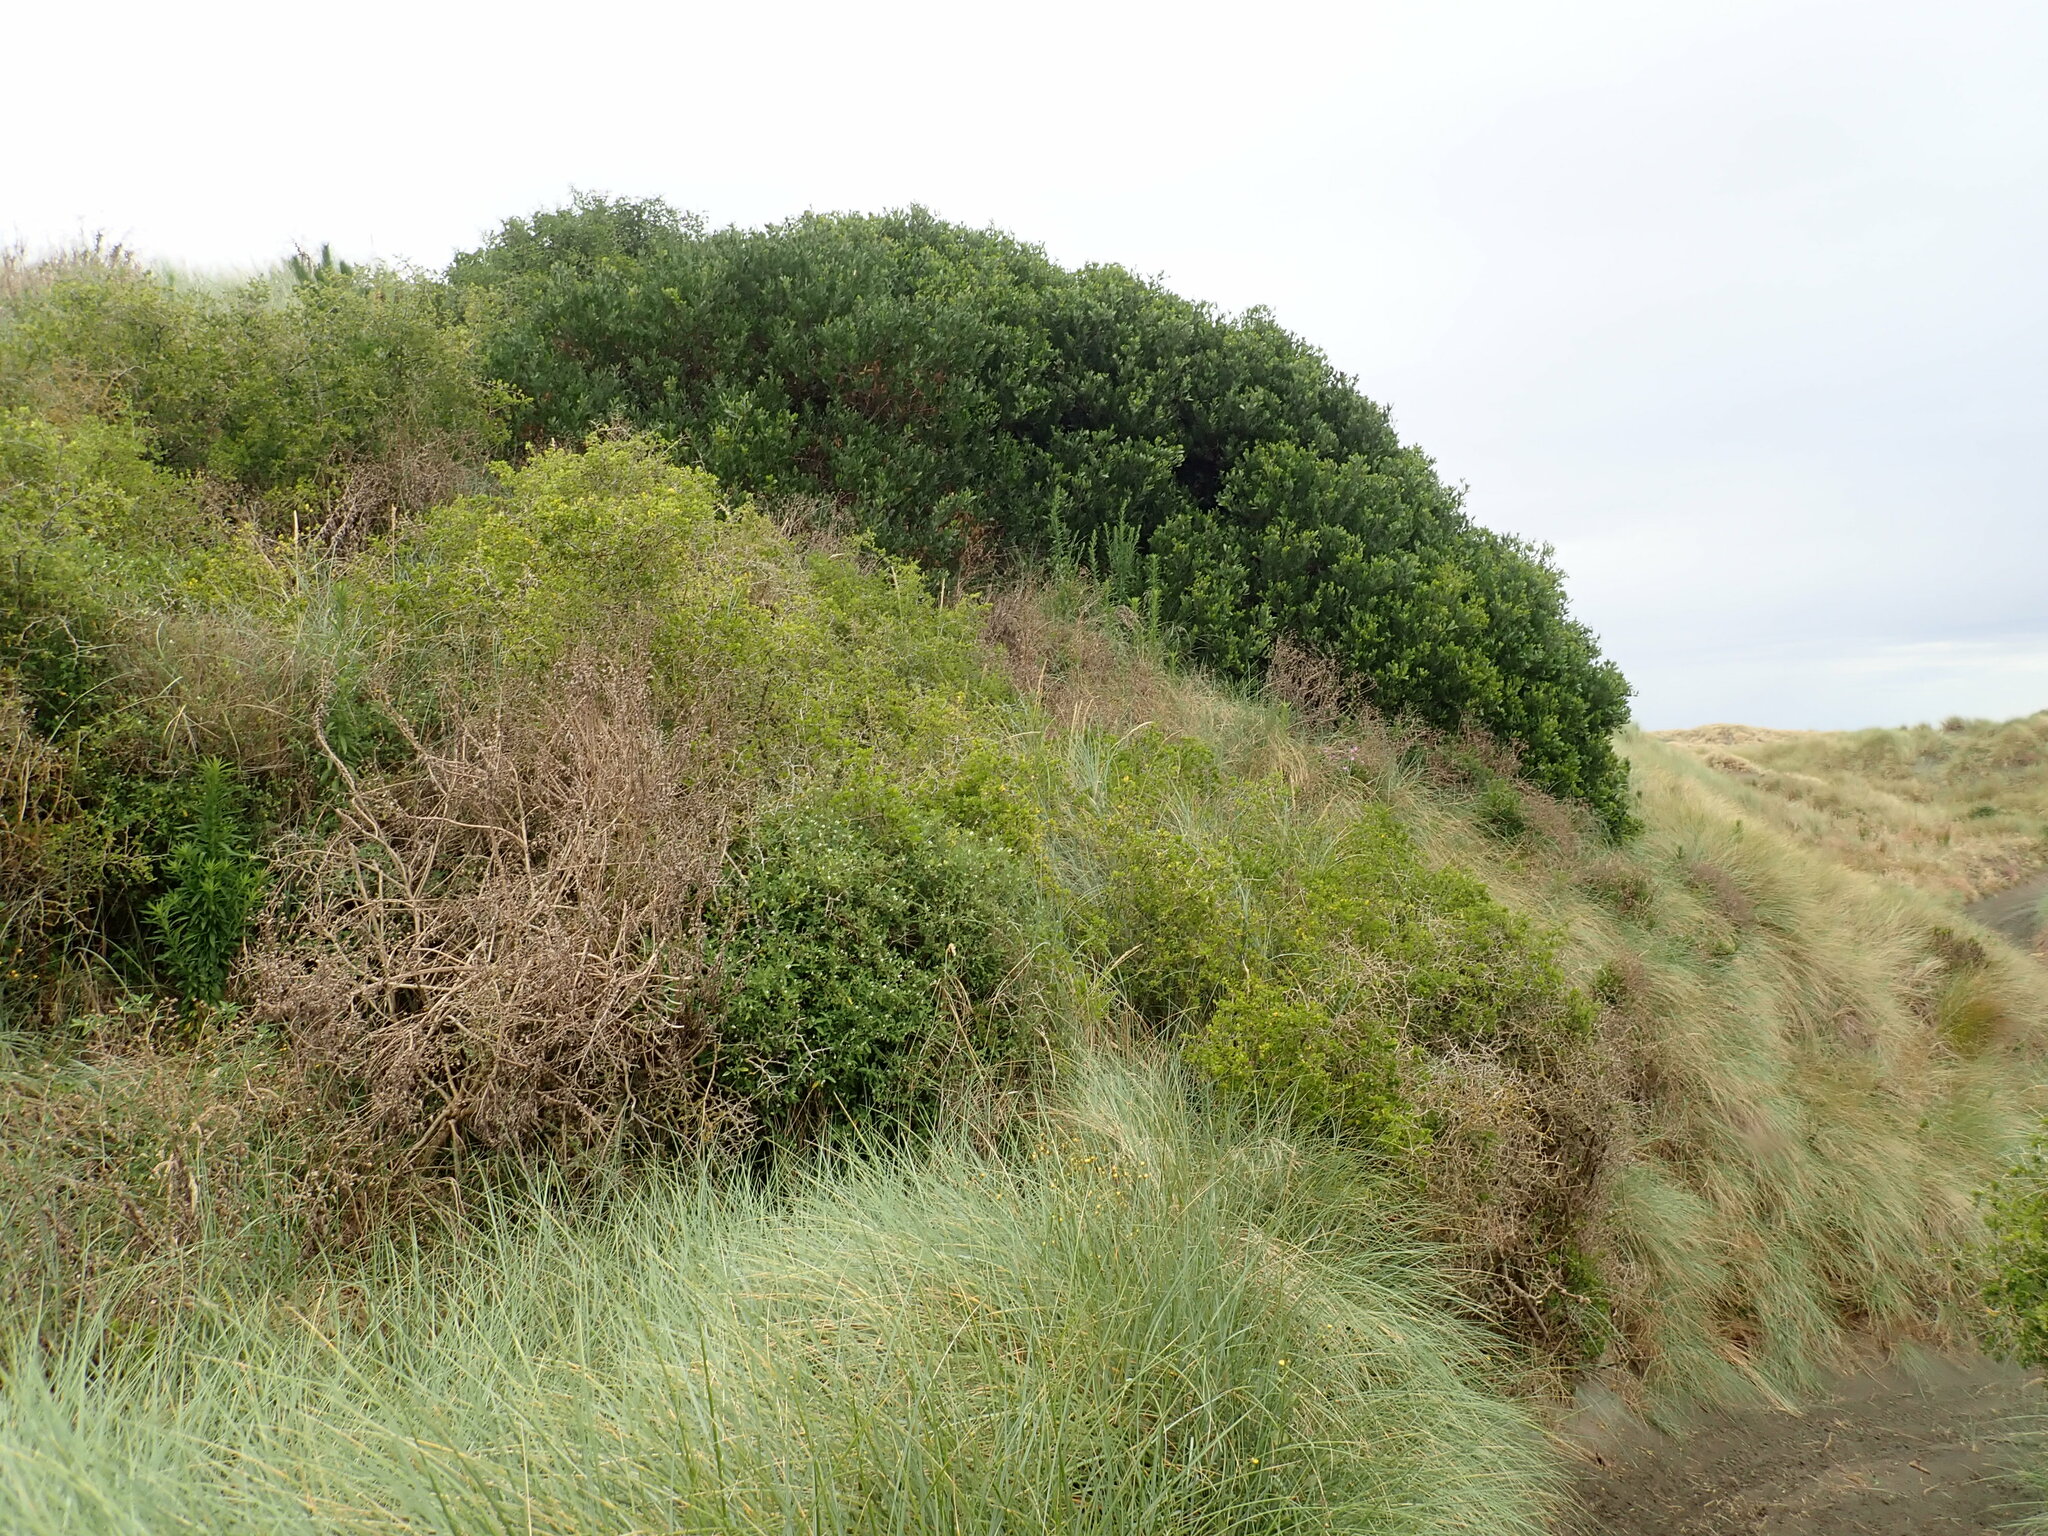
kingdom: Plantae
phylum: Tracheophyta
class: Magnoliopsida
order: Solanales
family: Solanaceae
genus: Solanum
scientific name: Solanum chenopodioides
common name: Tall nightshade
